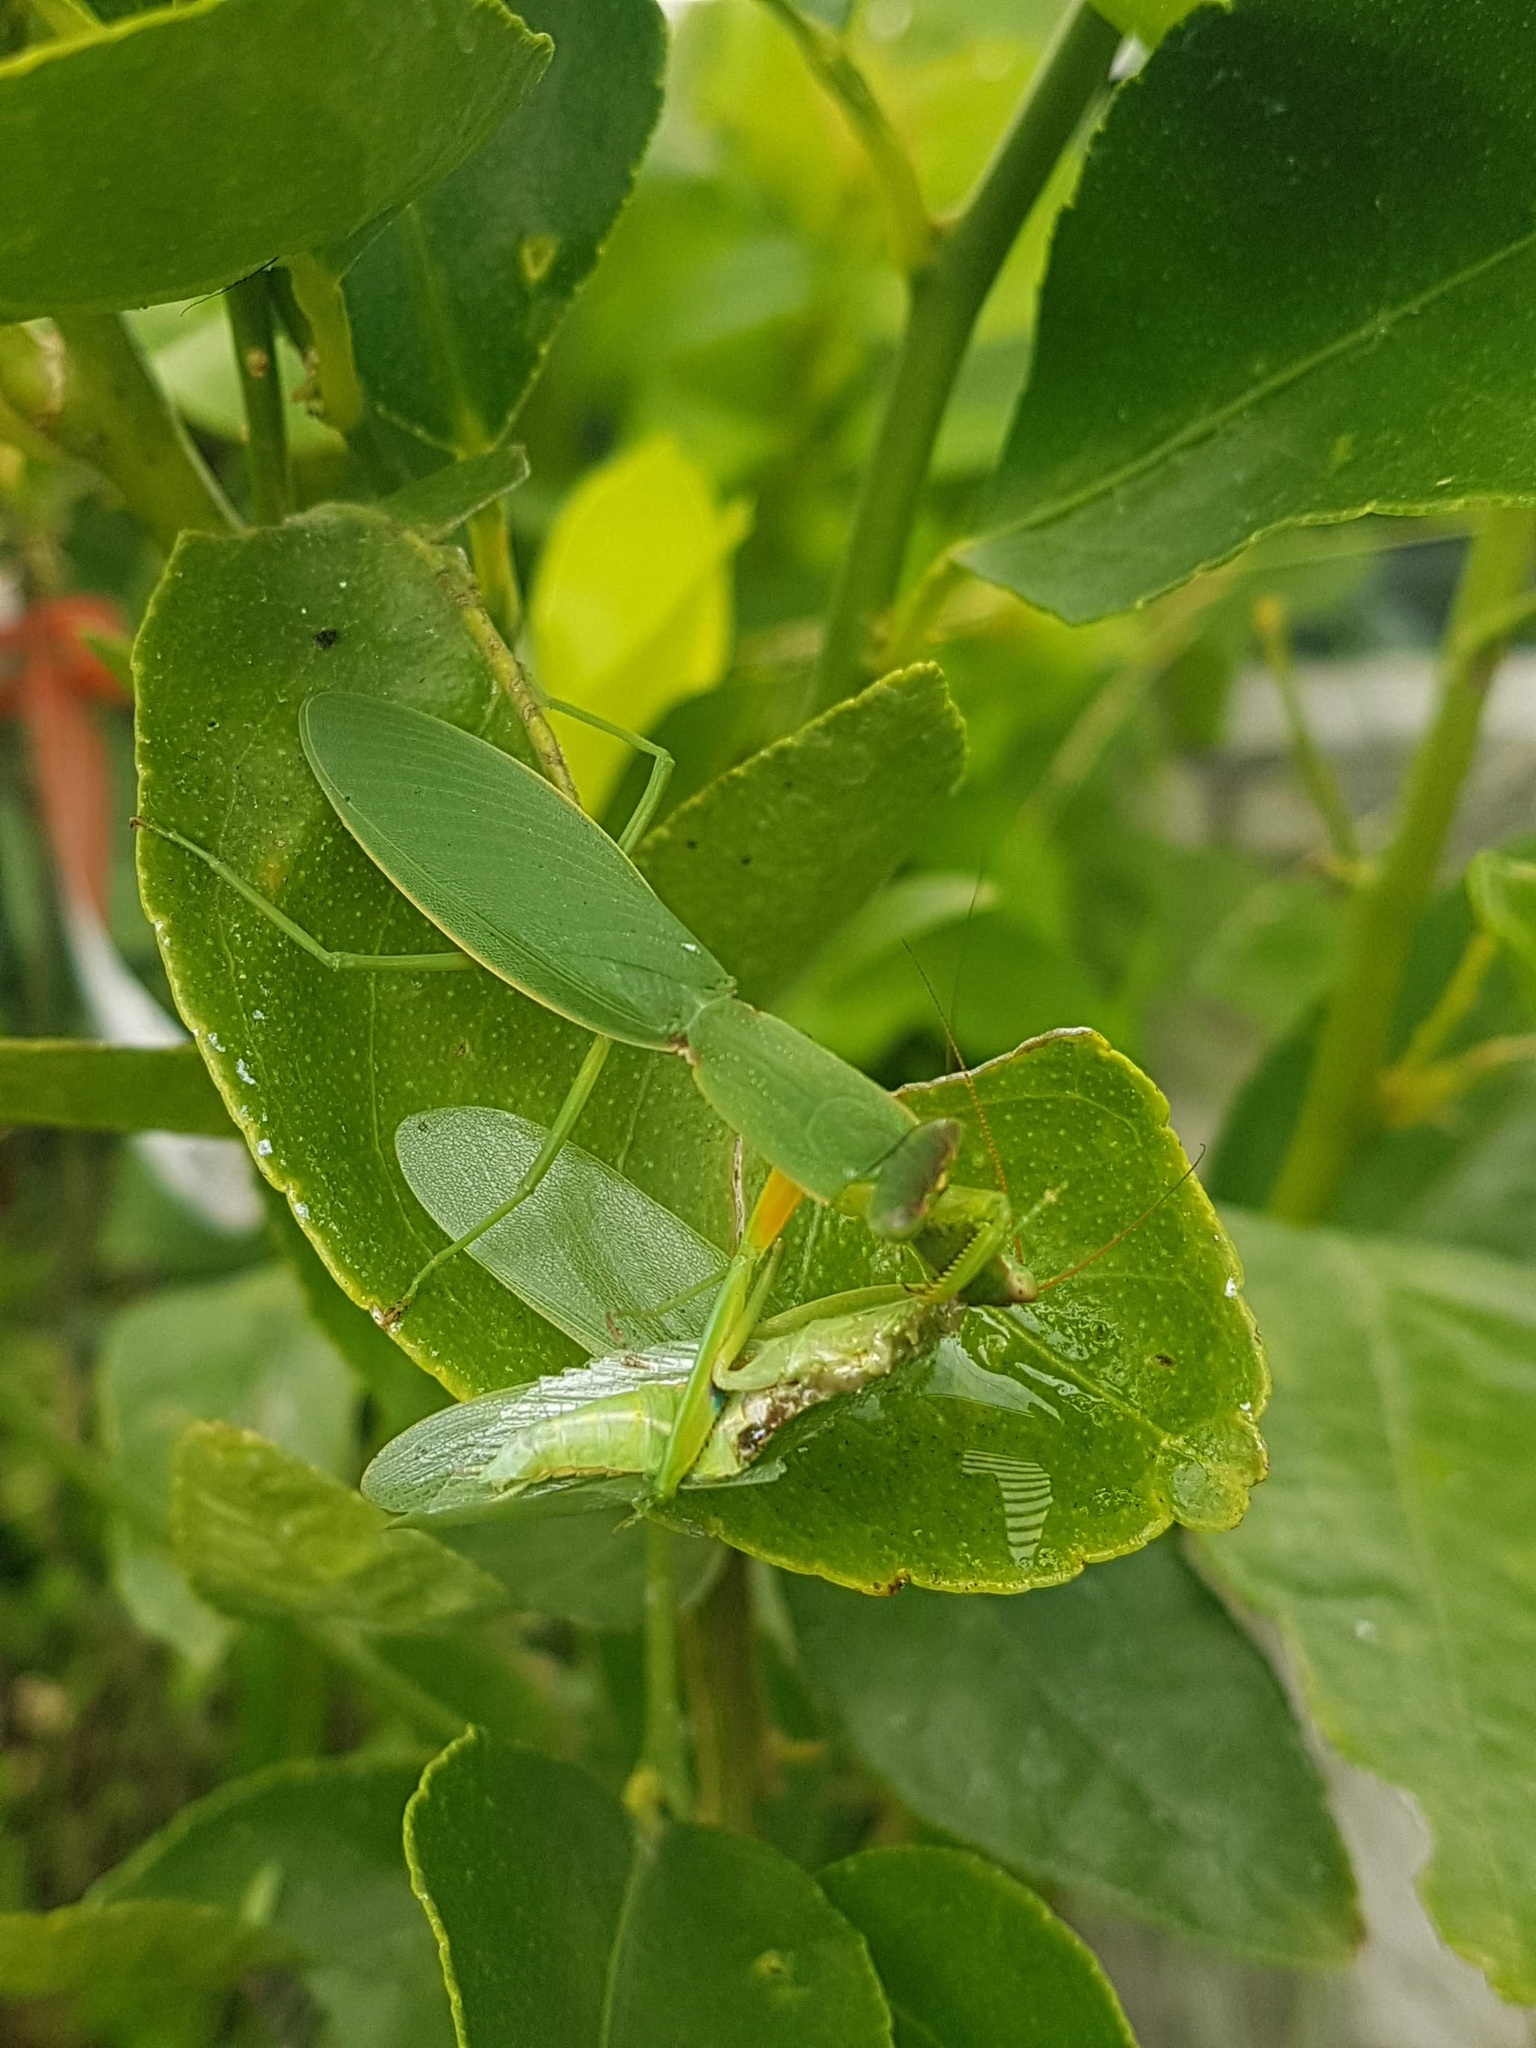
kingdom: Animalia
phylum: Arthropoda
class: Insecta
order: Mantodea
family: Mantidae
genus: Orthodera
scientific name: Orthodera novaezealandiae
